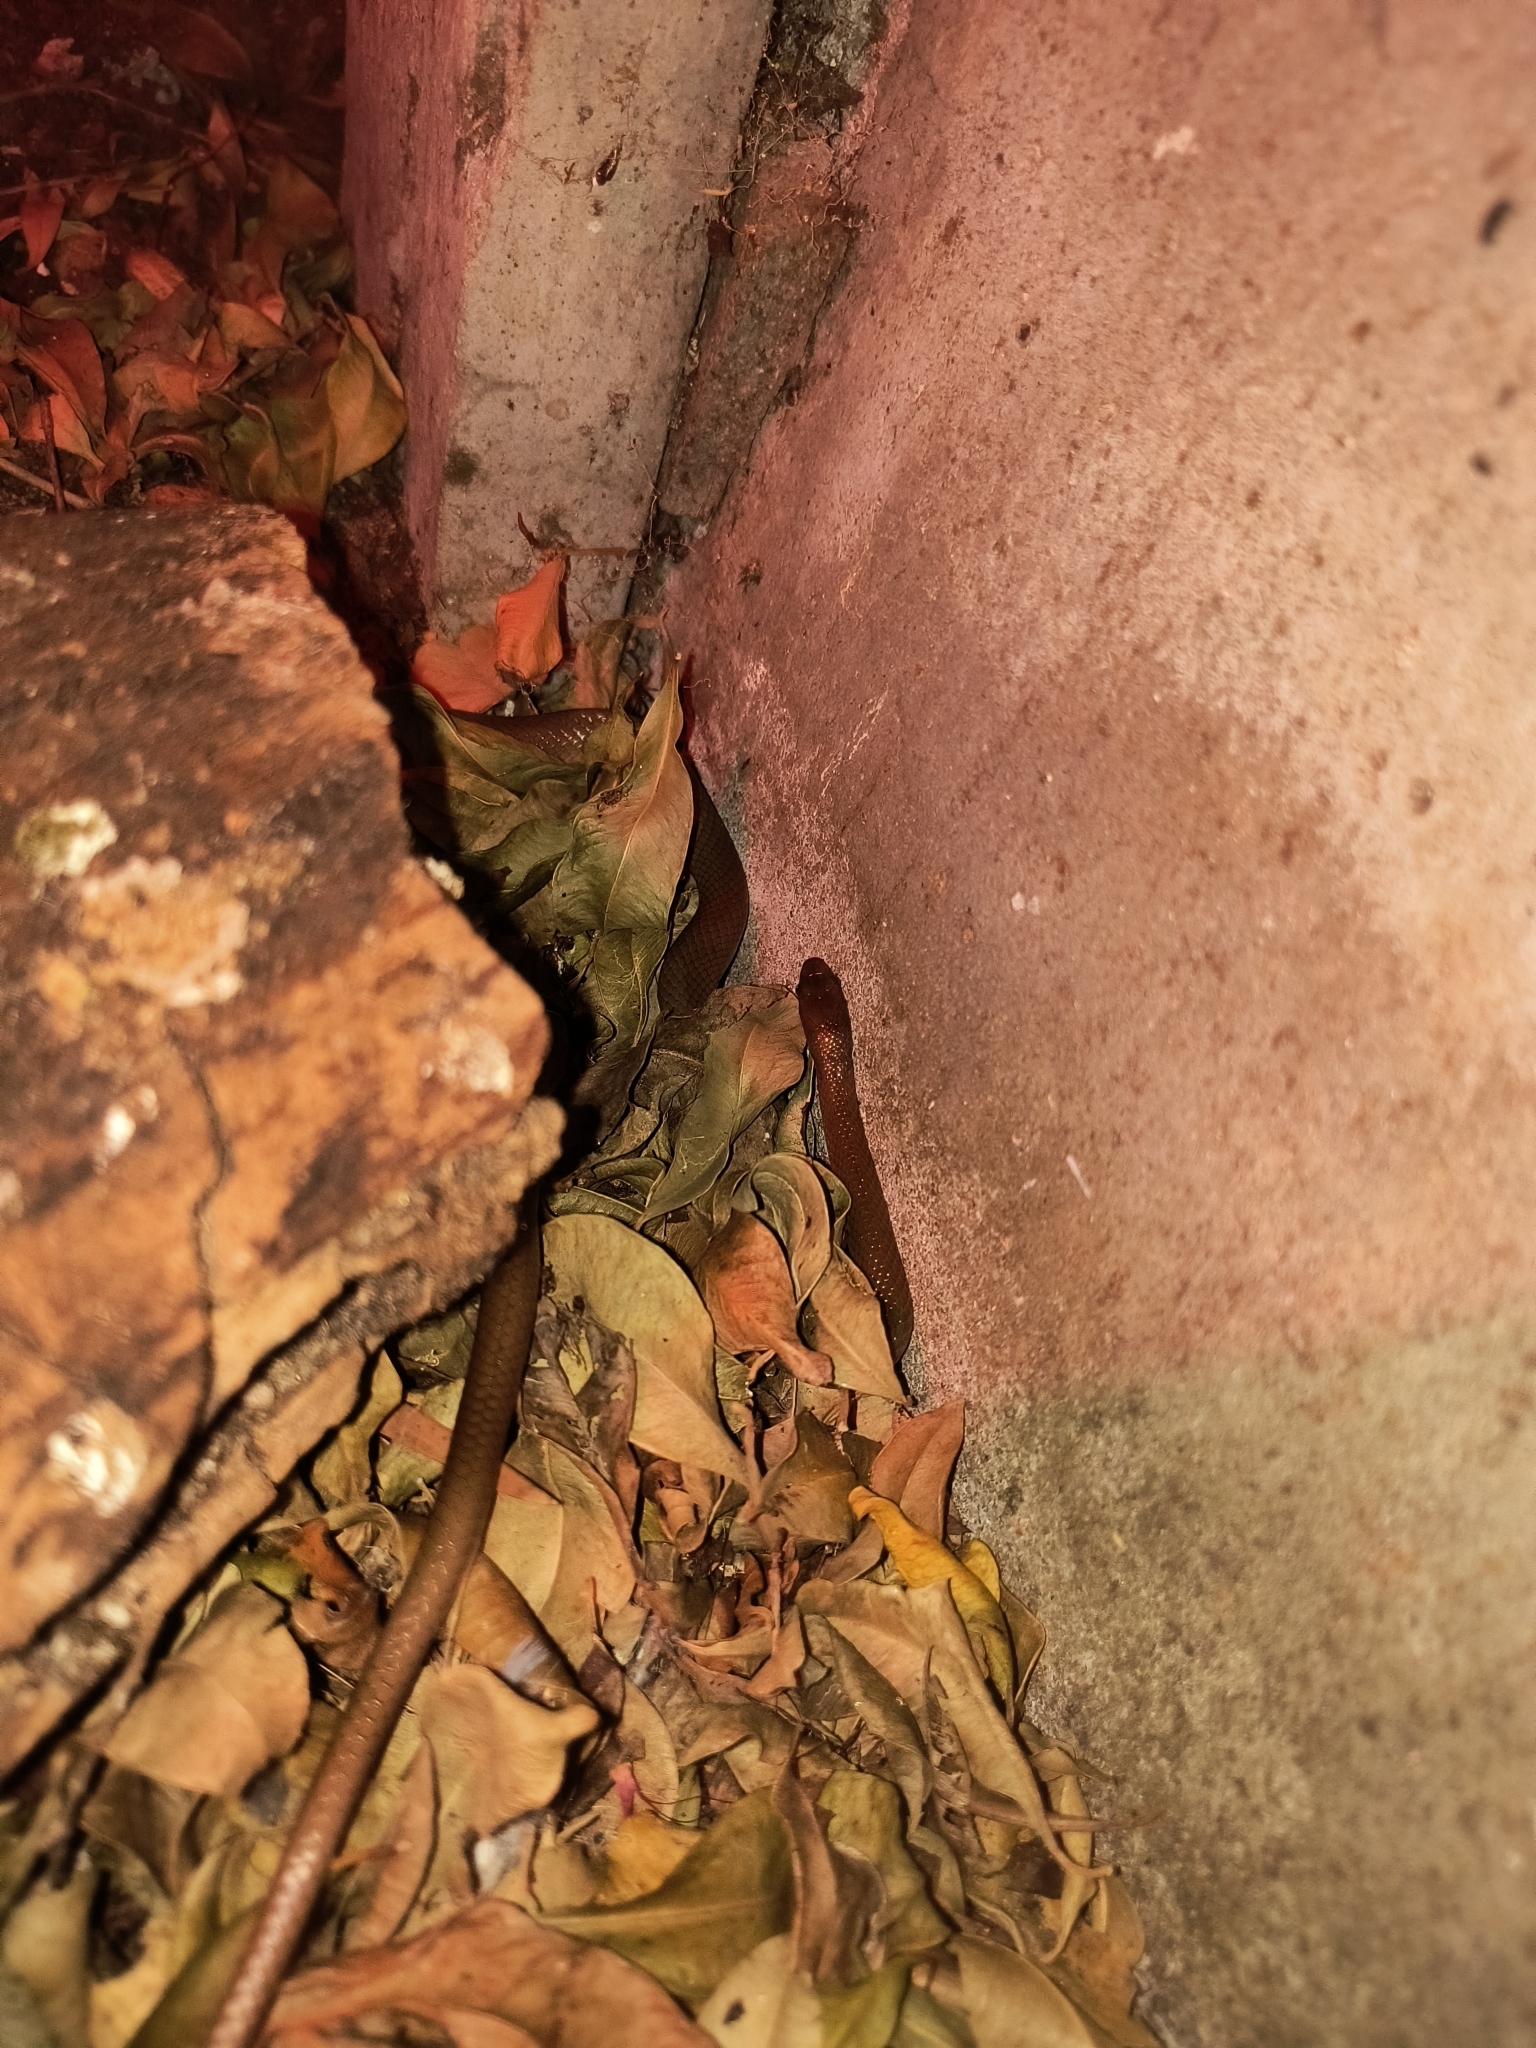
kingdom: Animalia
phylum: Chordata
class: Squamata
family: Lamprophiidae
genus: Lycodonomorphus
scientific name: Lycodonomorphus rufulus
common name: Brown water snake
